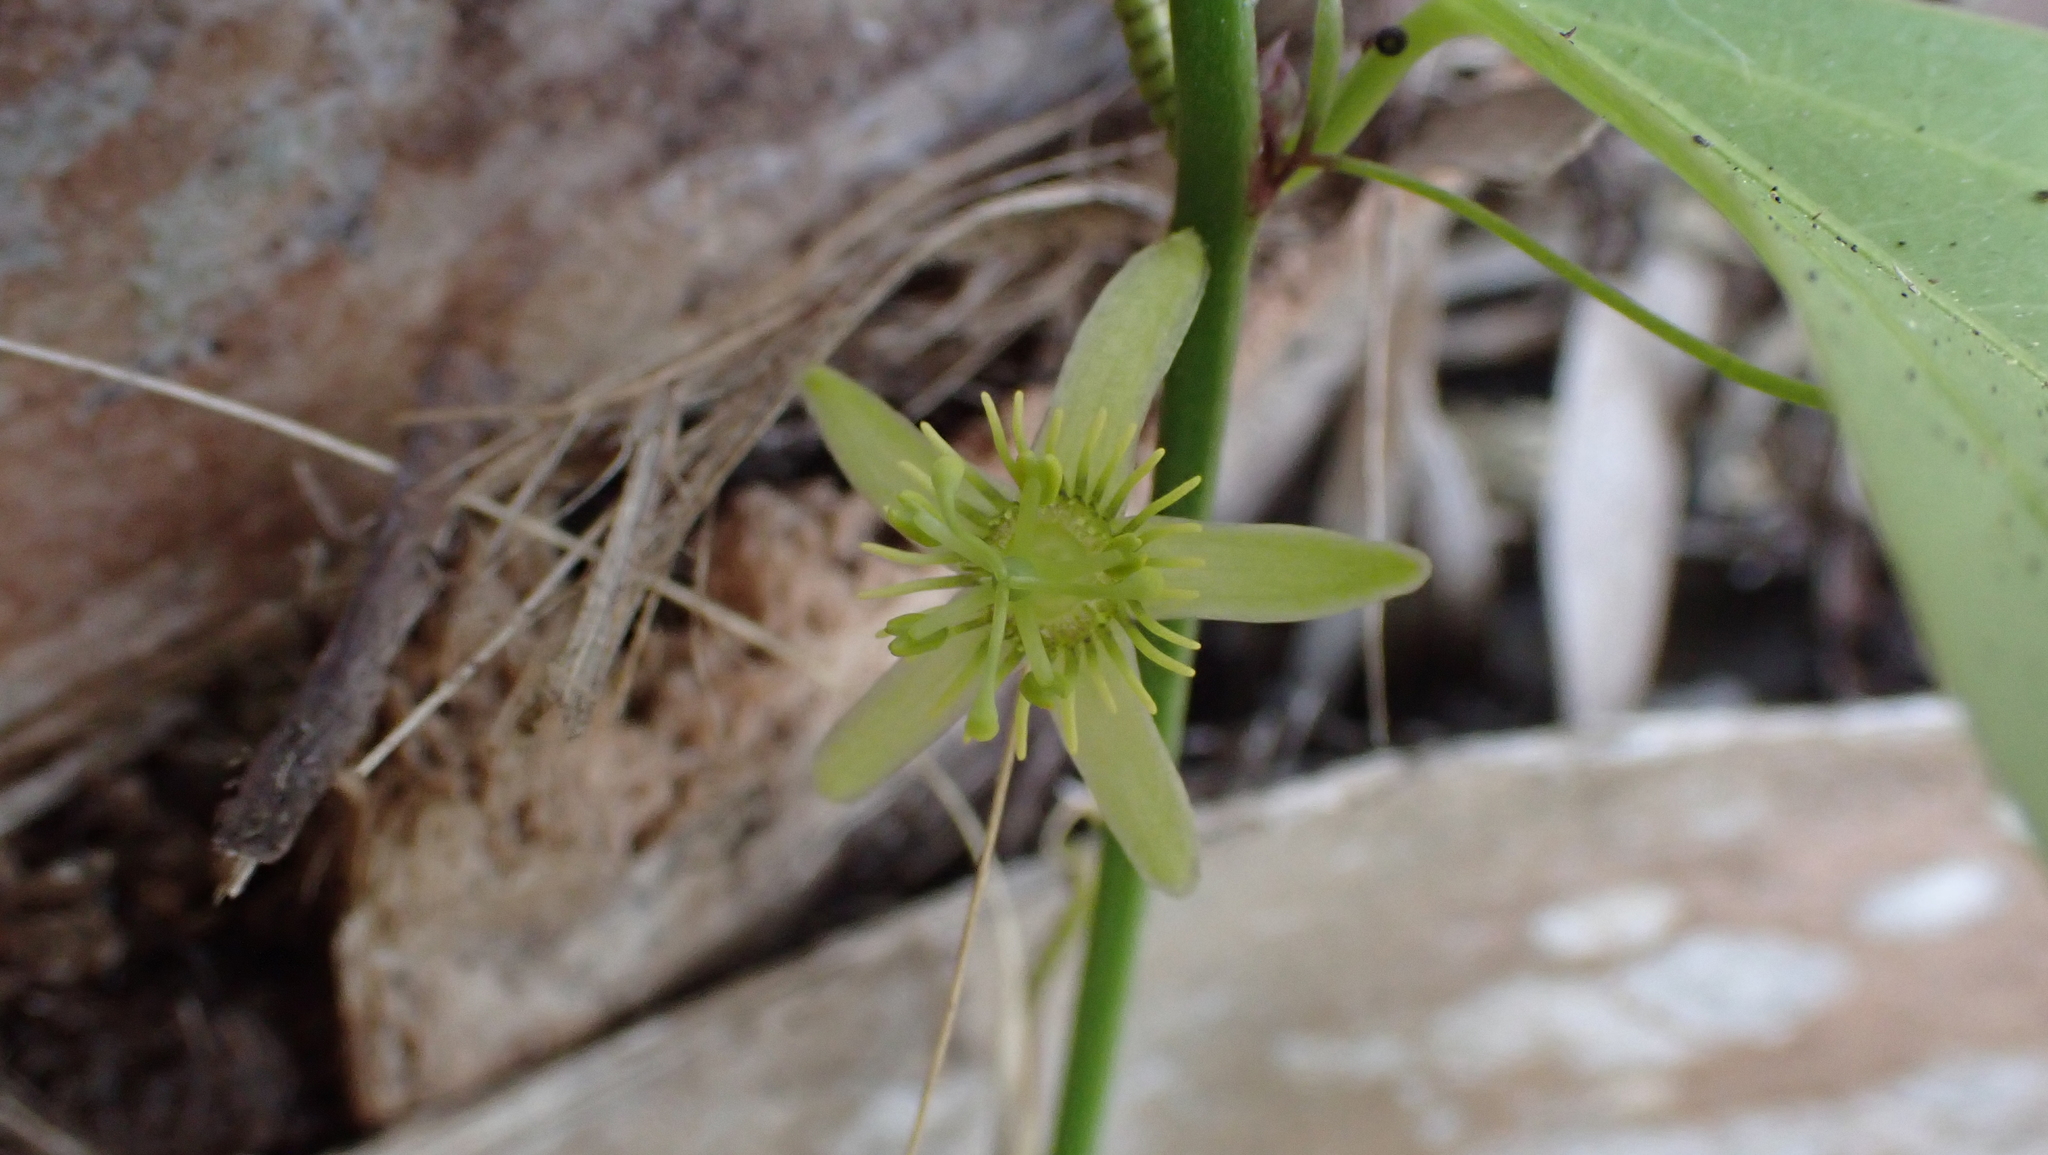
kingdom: Plantae
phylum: Tracheophyta
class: Magnoliopsida
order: Malpighiales
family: Passifloraceae
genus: Passiflora
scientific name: Passiflora pallida
